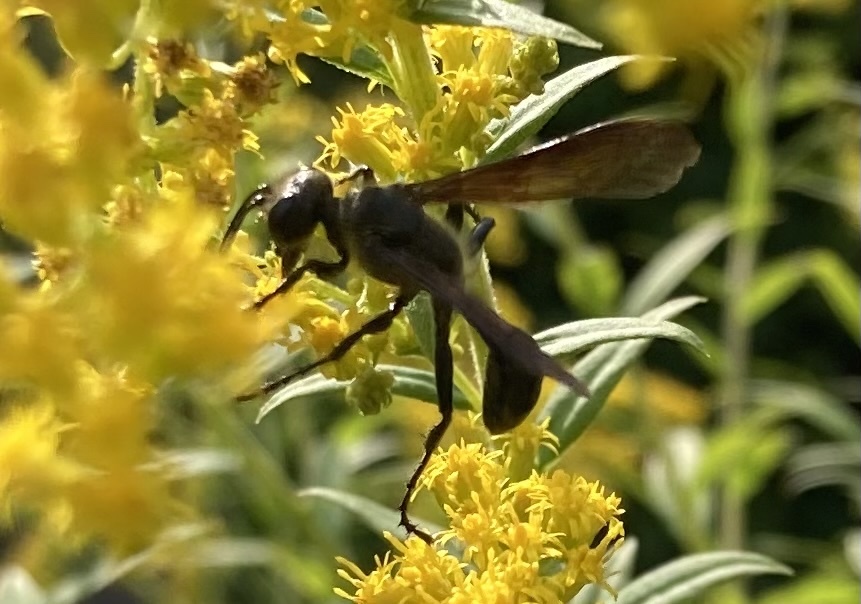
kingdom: Animalia
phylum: Arthropoda
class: Insecta
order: Hymenoptera
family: Sphecidae
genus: Isodontia
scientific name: Isodontia mexicana
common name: Mud dauber
